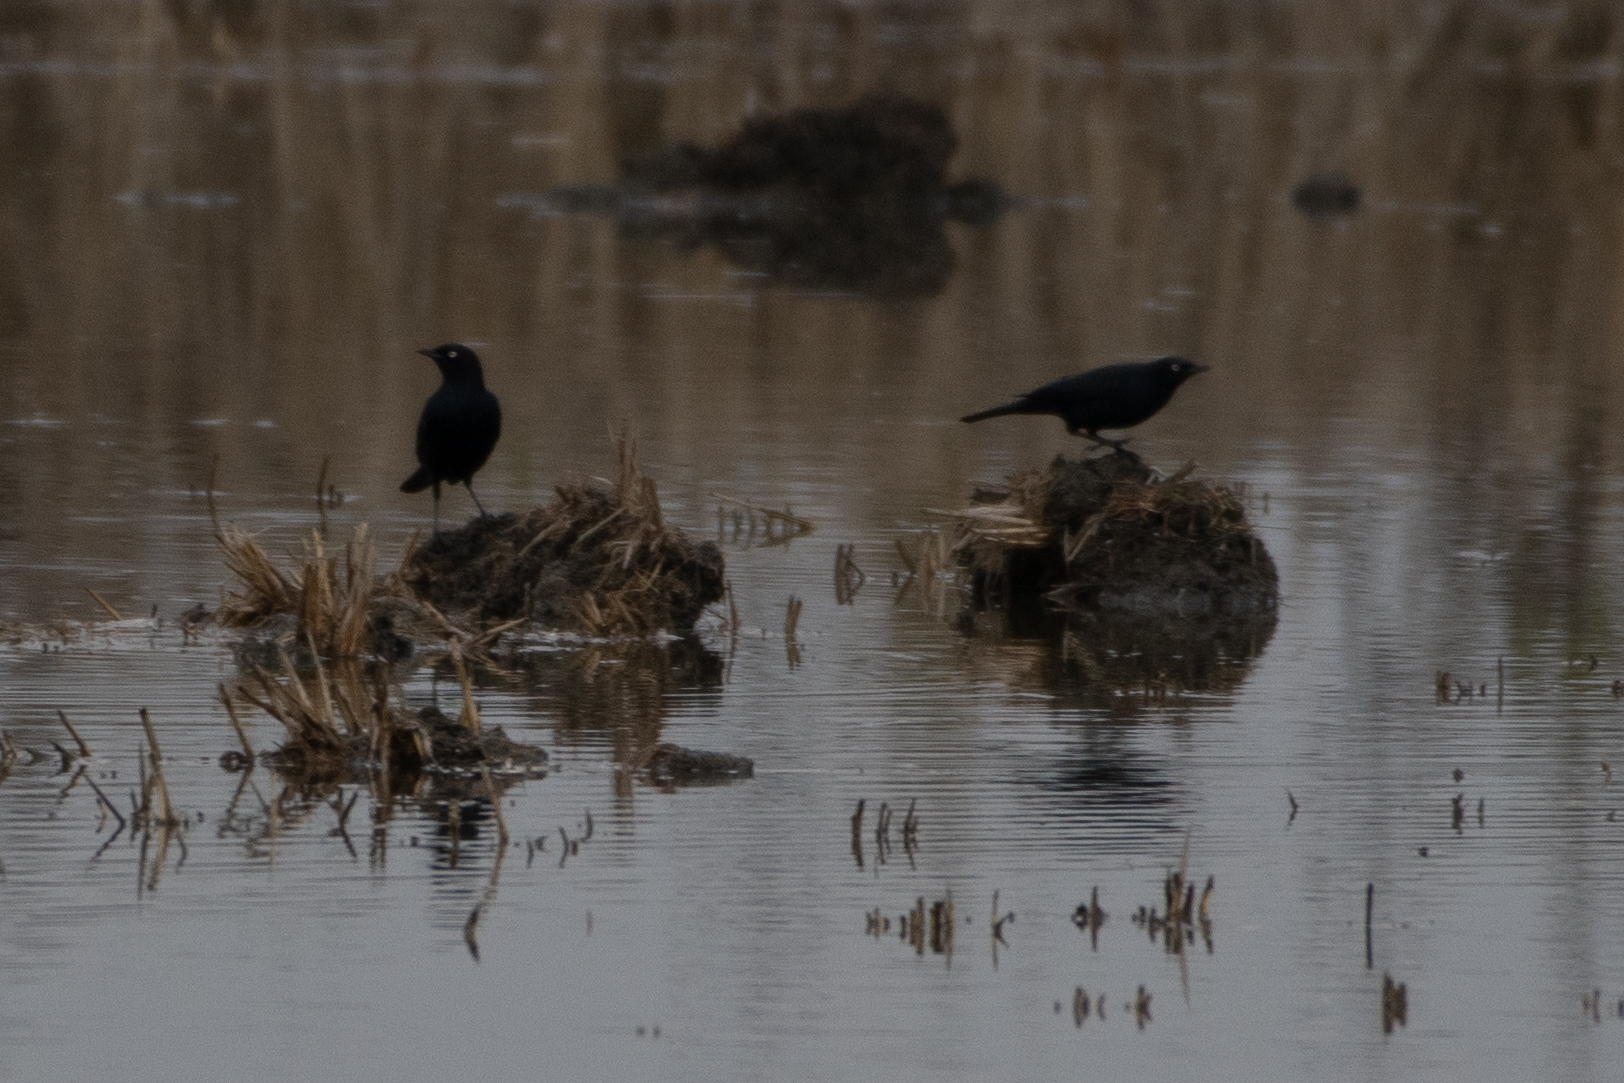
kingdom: Animalia
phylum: Chordata
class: Aves
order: Passeriformes
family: Icteridae
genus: Euphagus
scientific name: Euphagus cyanocephalus
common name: Brewer's blackbird
